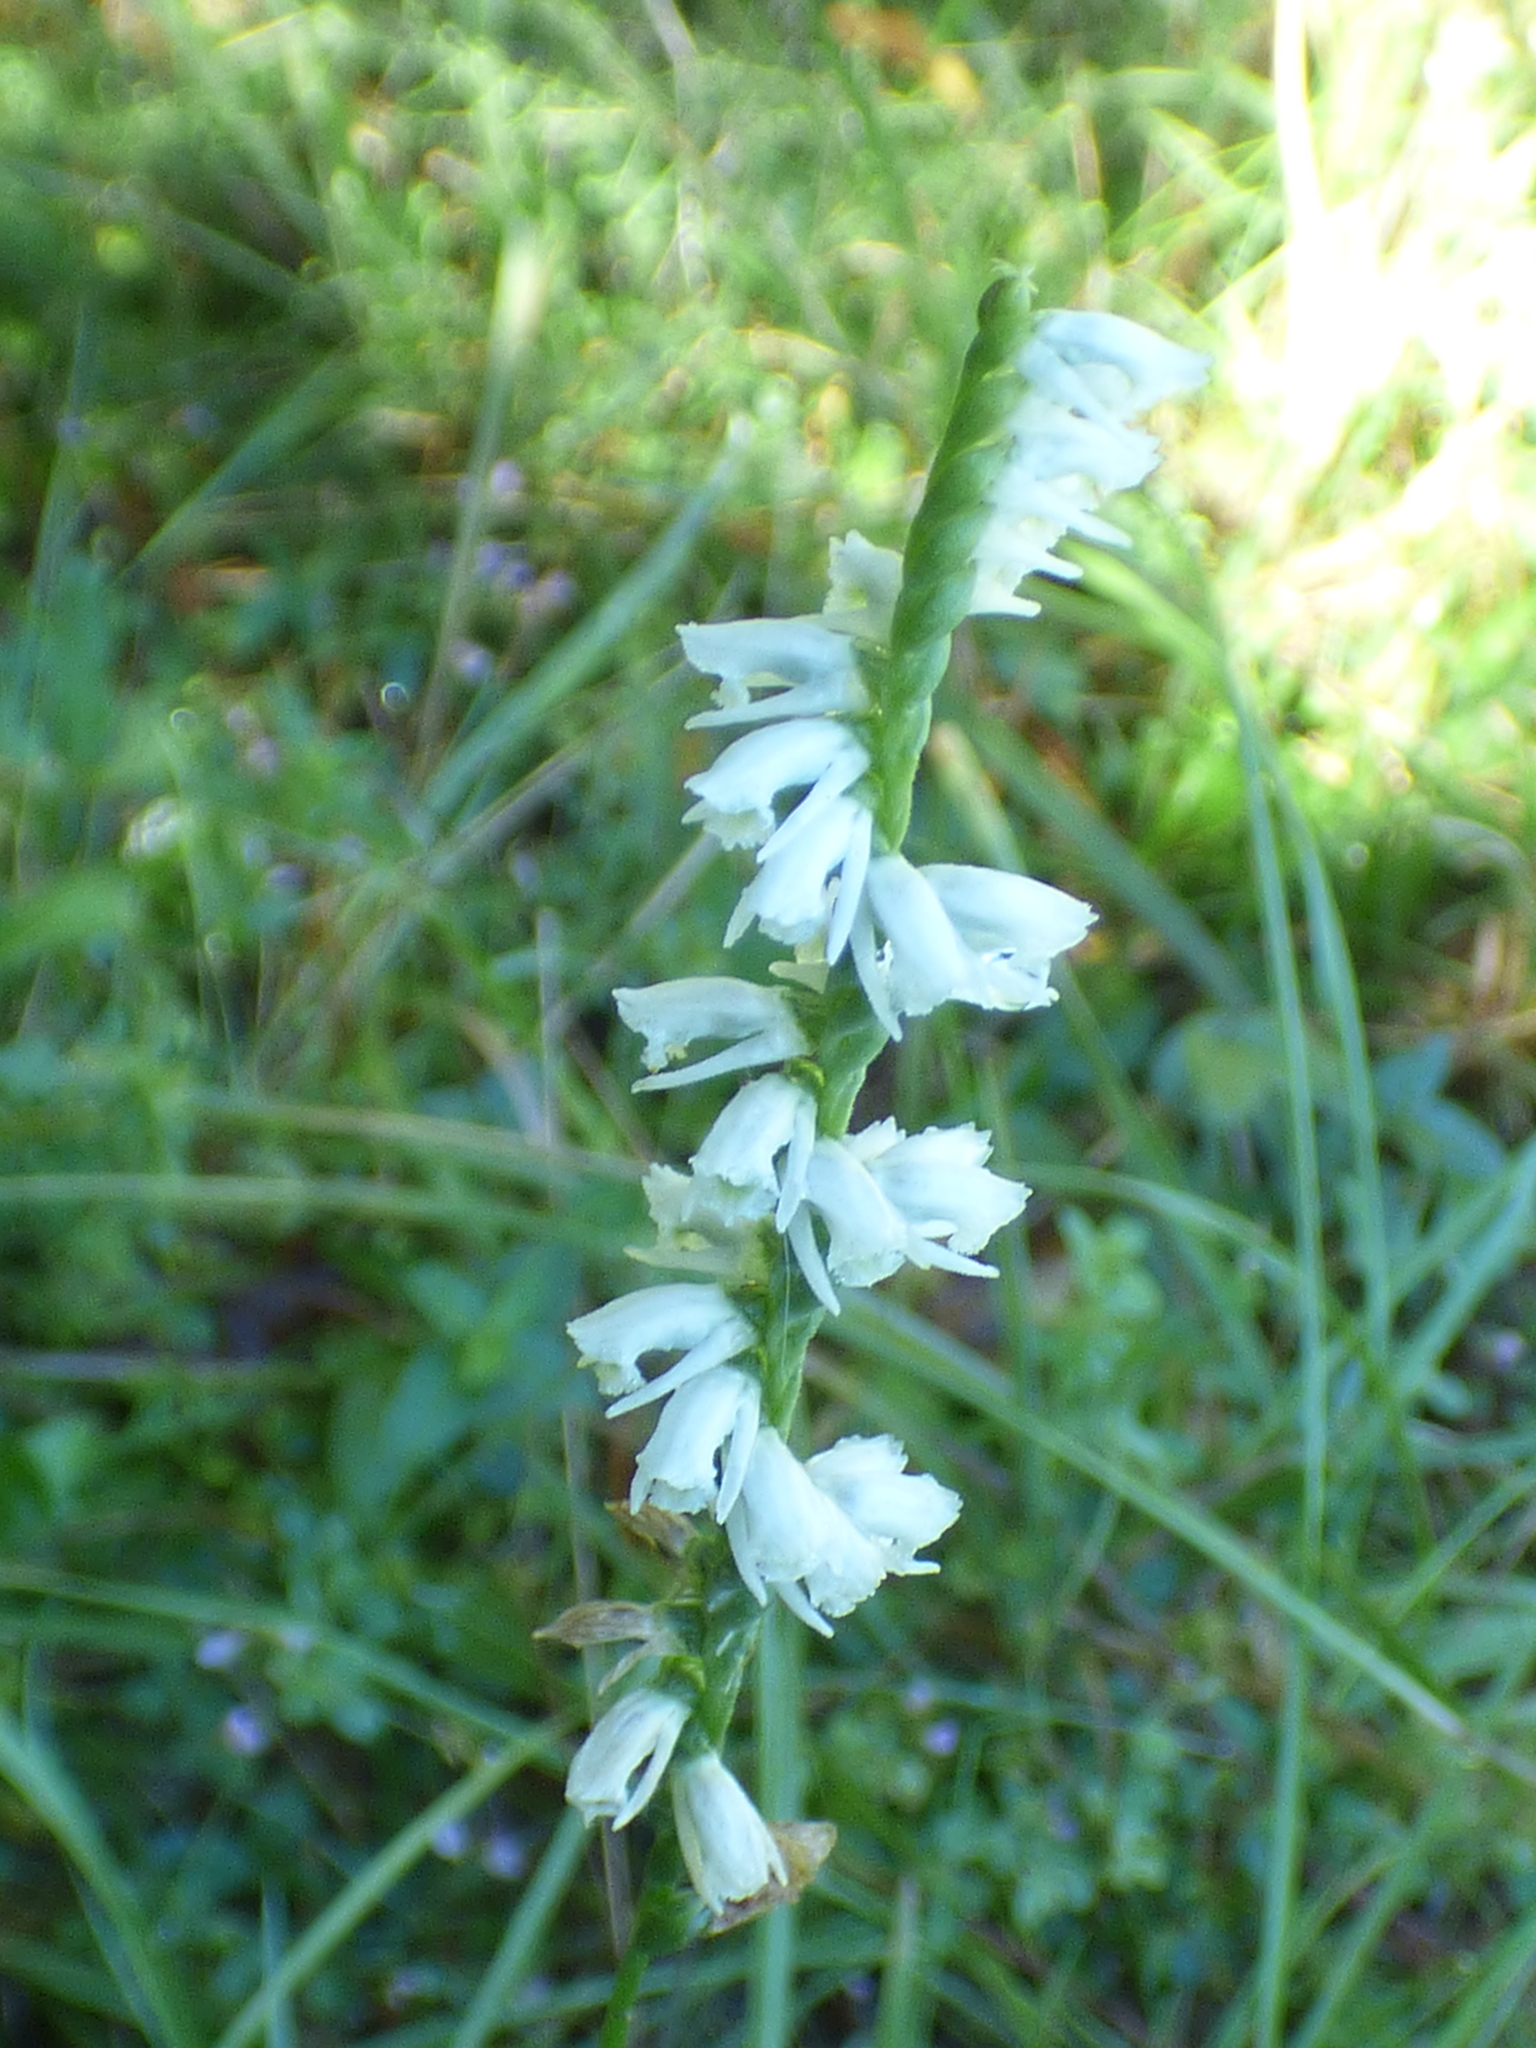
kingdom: Plantae
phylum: Tracheophyta
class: Liliopsida
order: Asparagales
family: Orchidaceae
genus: Spiranthes
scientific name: Spiranthes lacera
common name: Northern slender ladies'-tresses
